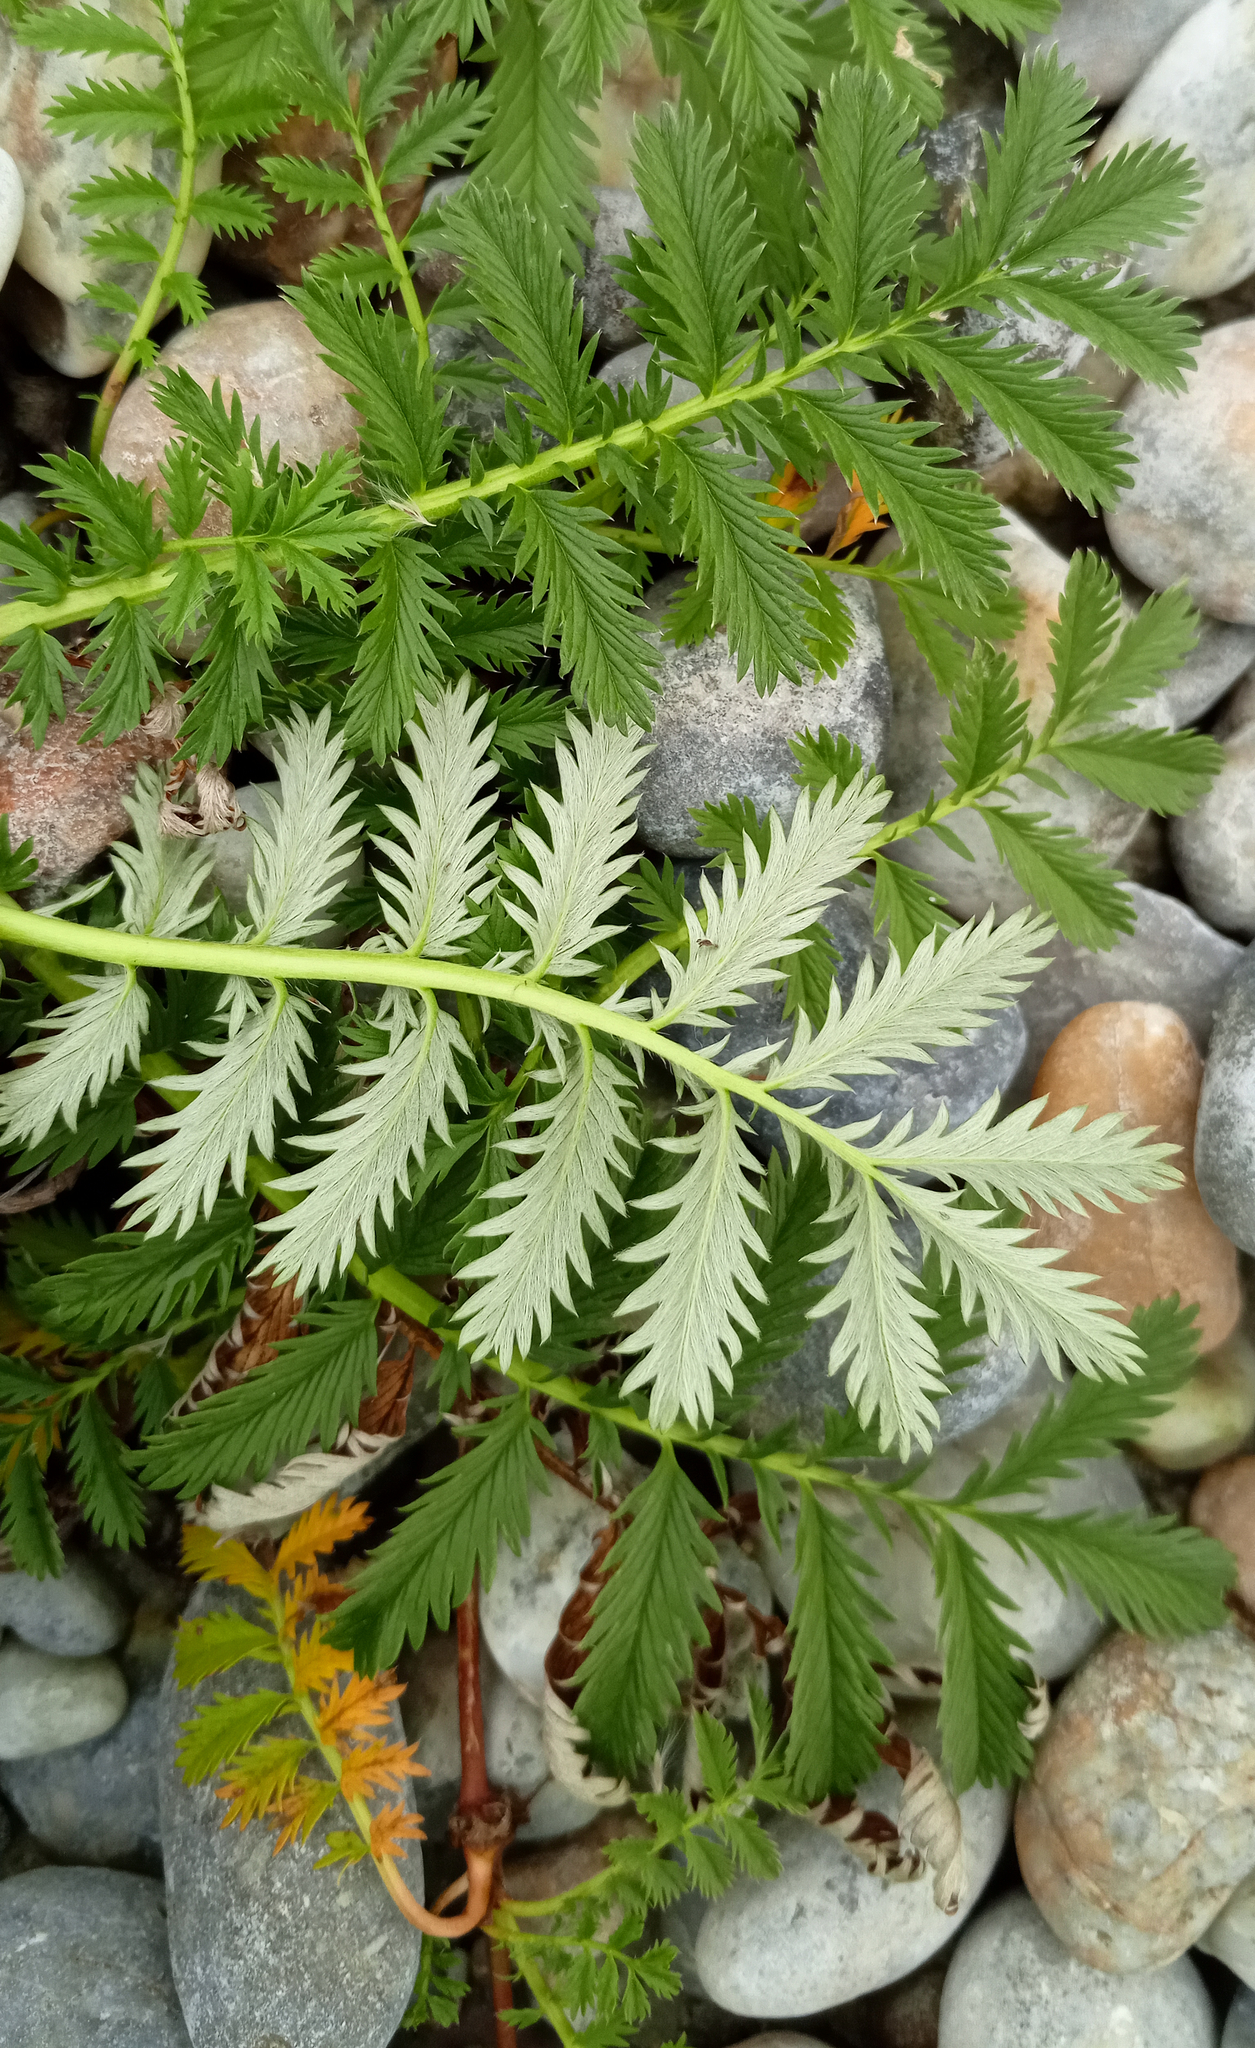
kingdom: Plantae
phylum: Tracheophyta
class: Magnoliopsida
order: Rosales
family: Rosaceae
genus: Argentina
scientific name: Argentina anserina
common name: Common silverweed
